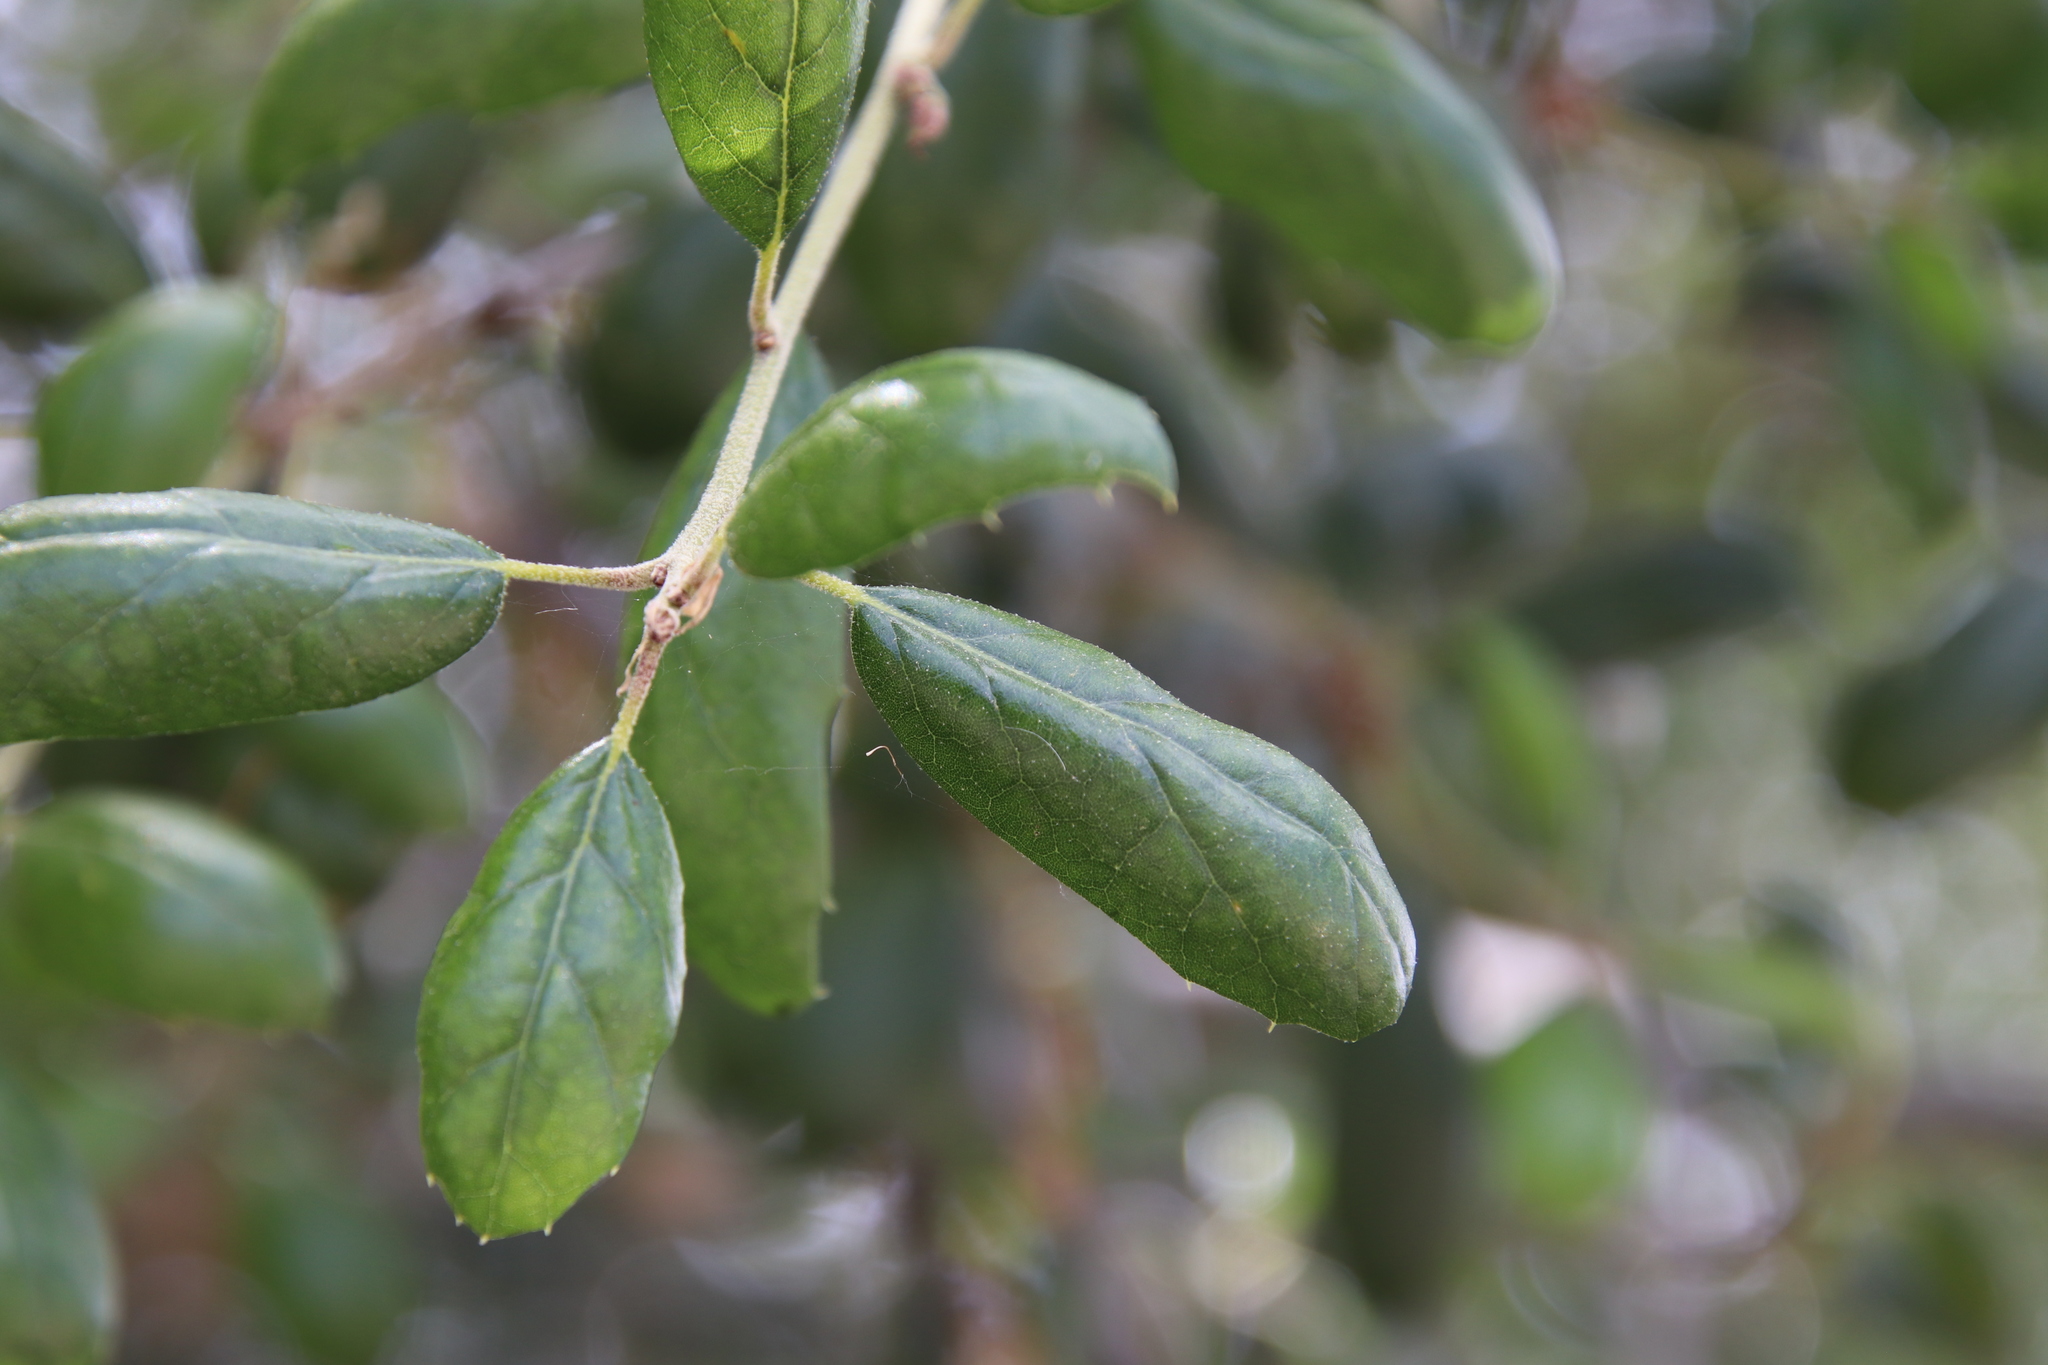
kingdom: Plantae
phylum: Tracheophyta
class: Magnoliopsida
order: Fagales
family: Fagaceae
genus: Quercus
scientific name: Quercus agrifolia
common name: California live oak
